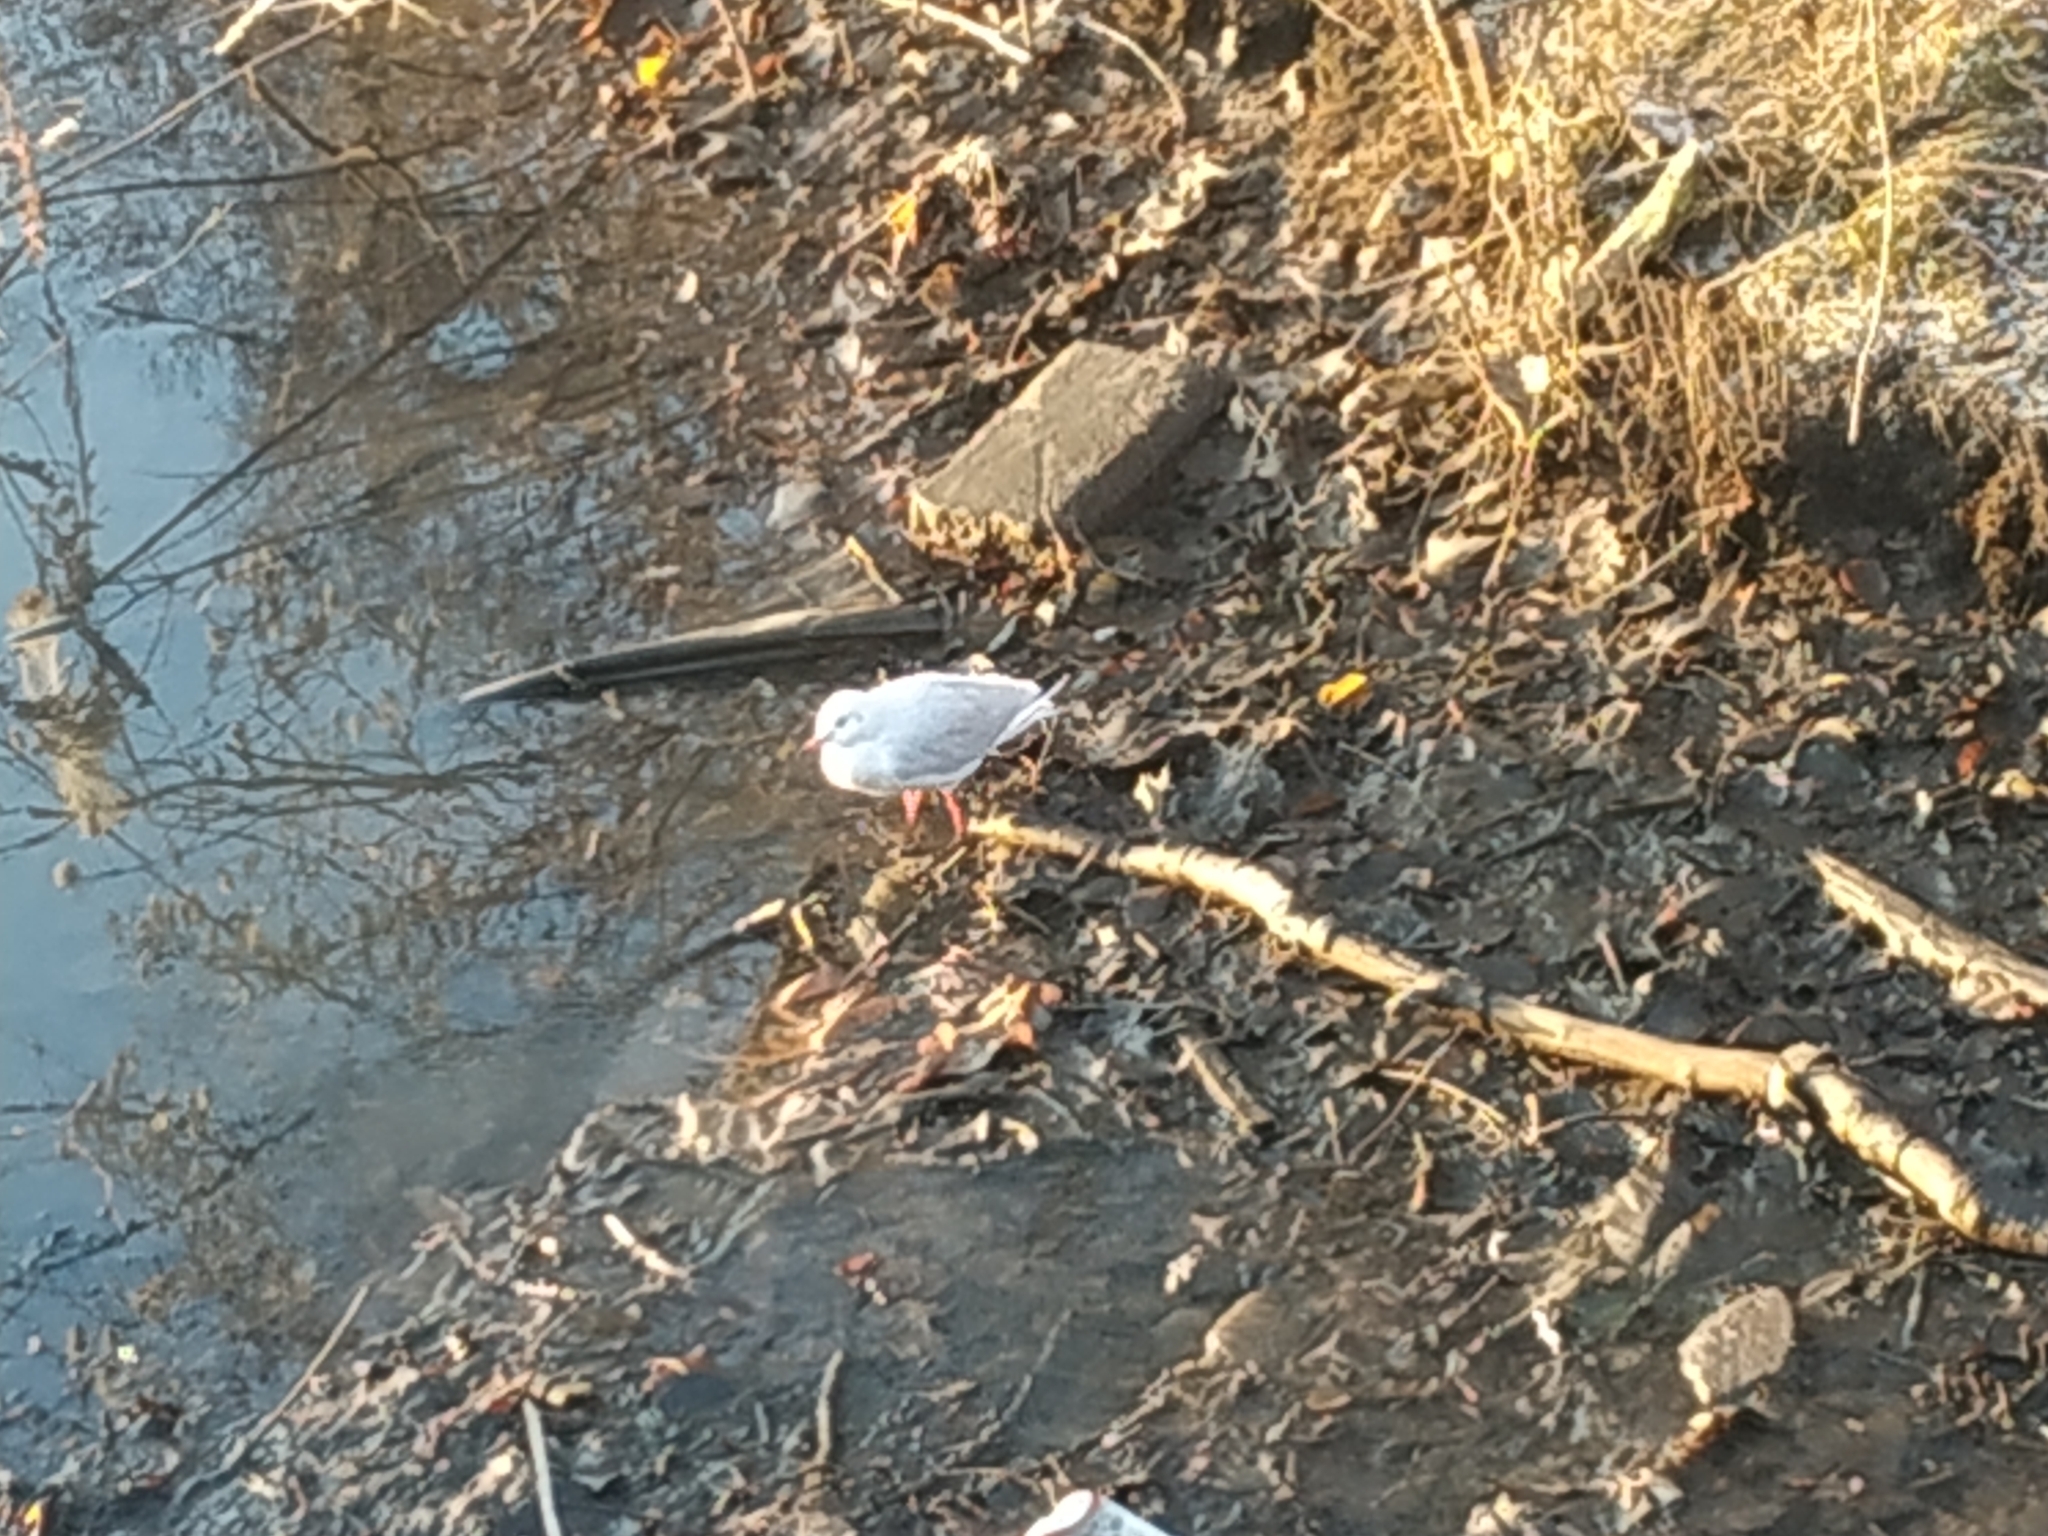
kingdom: Animalia
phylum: Chordata
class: Aves
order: Charadriiformes
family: Laridae
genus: Chroicocephalus
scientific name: Chroicocephalus ridibundus
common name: Black-headed gull
